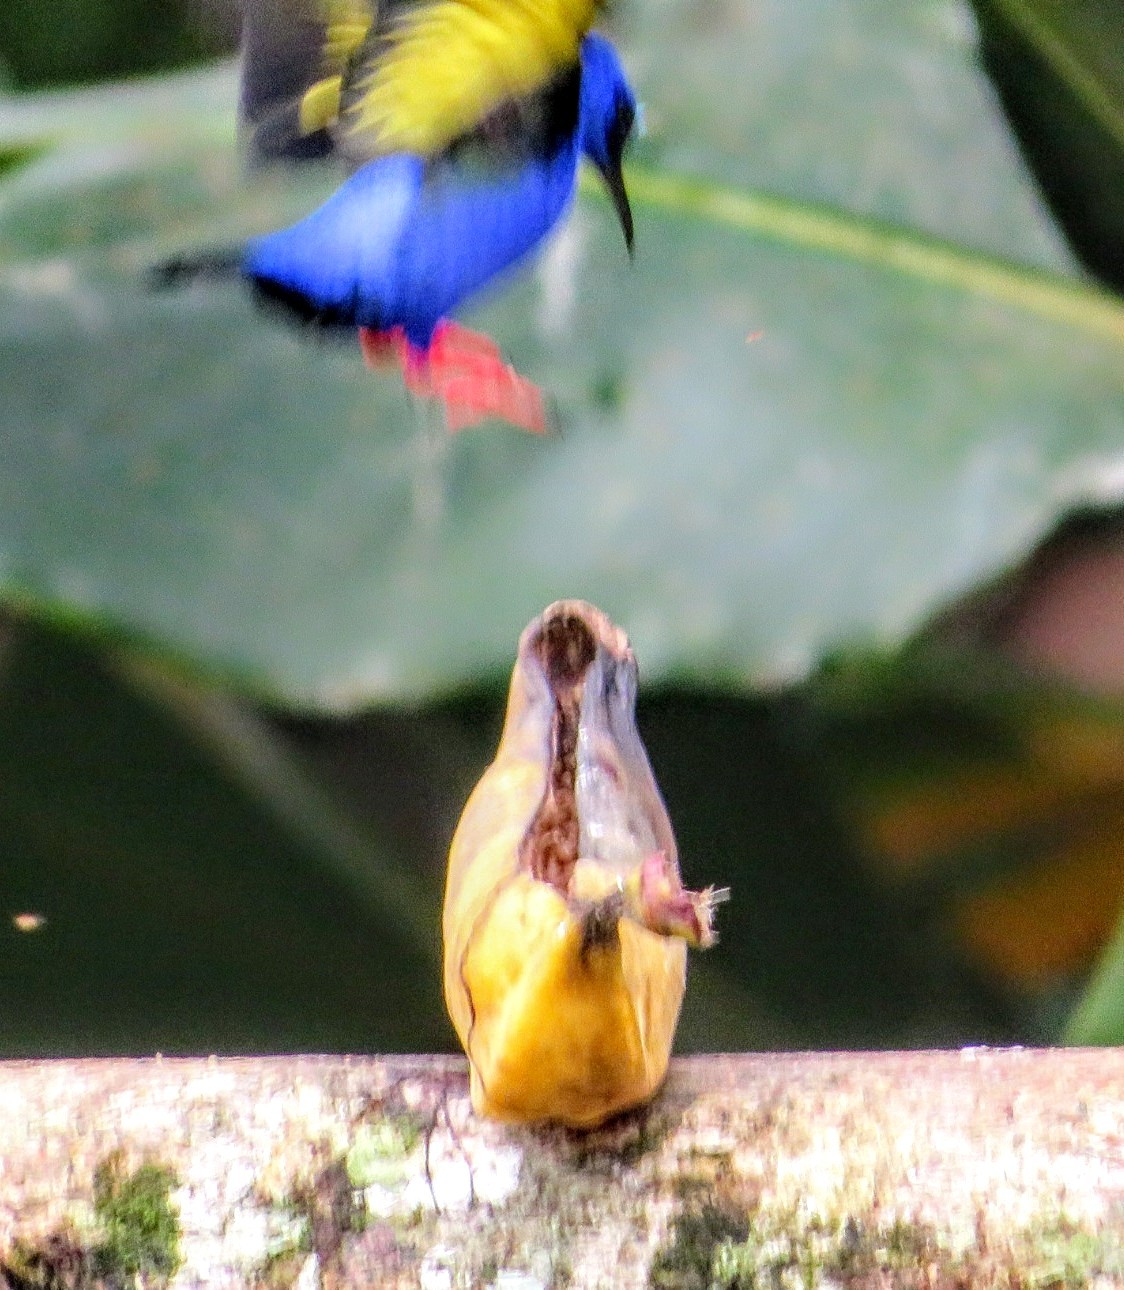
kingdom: Animalia
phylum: Chordata
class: Aves
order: Passeriformes
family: Thraupidae
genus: Cyanerpes
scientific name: Cyanerpes cyaneus
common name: Red-legged honeycreeper
